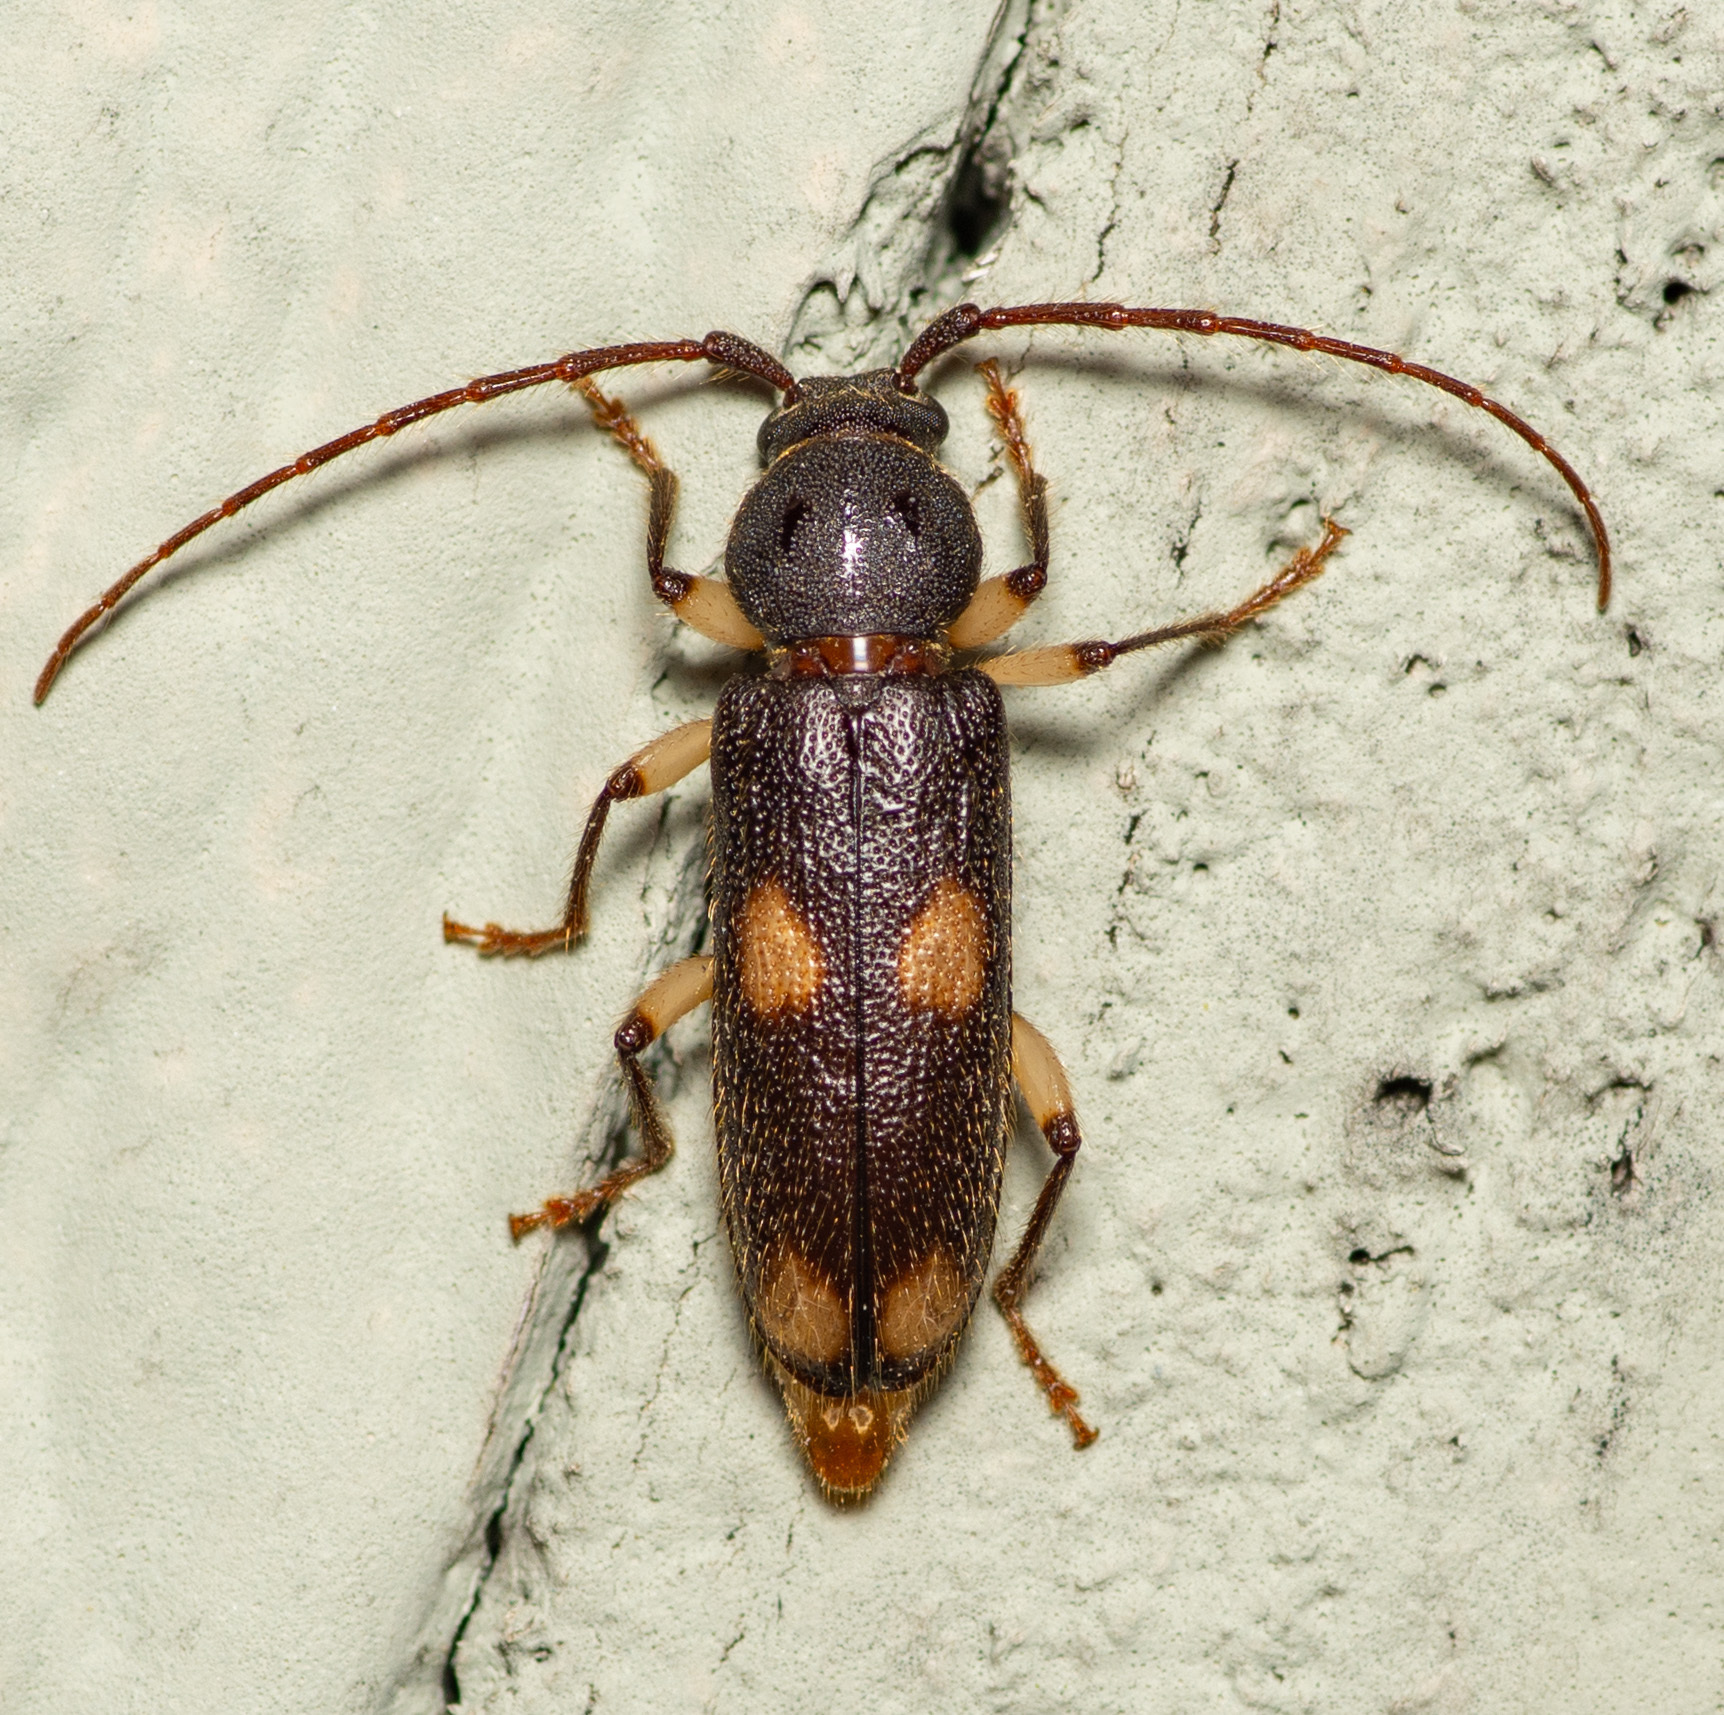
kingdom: Animalia
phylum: Arthropoda
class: Insecta
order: Coleoptera
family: Cerambycidae
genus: Tylonotus
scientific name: Tylonotus bimaculatus
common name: Ash and privet borer
